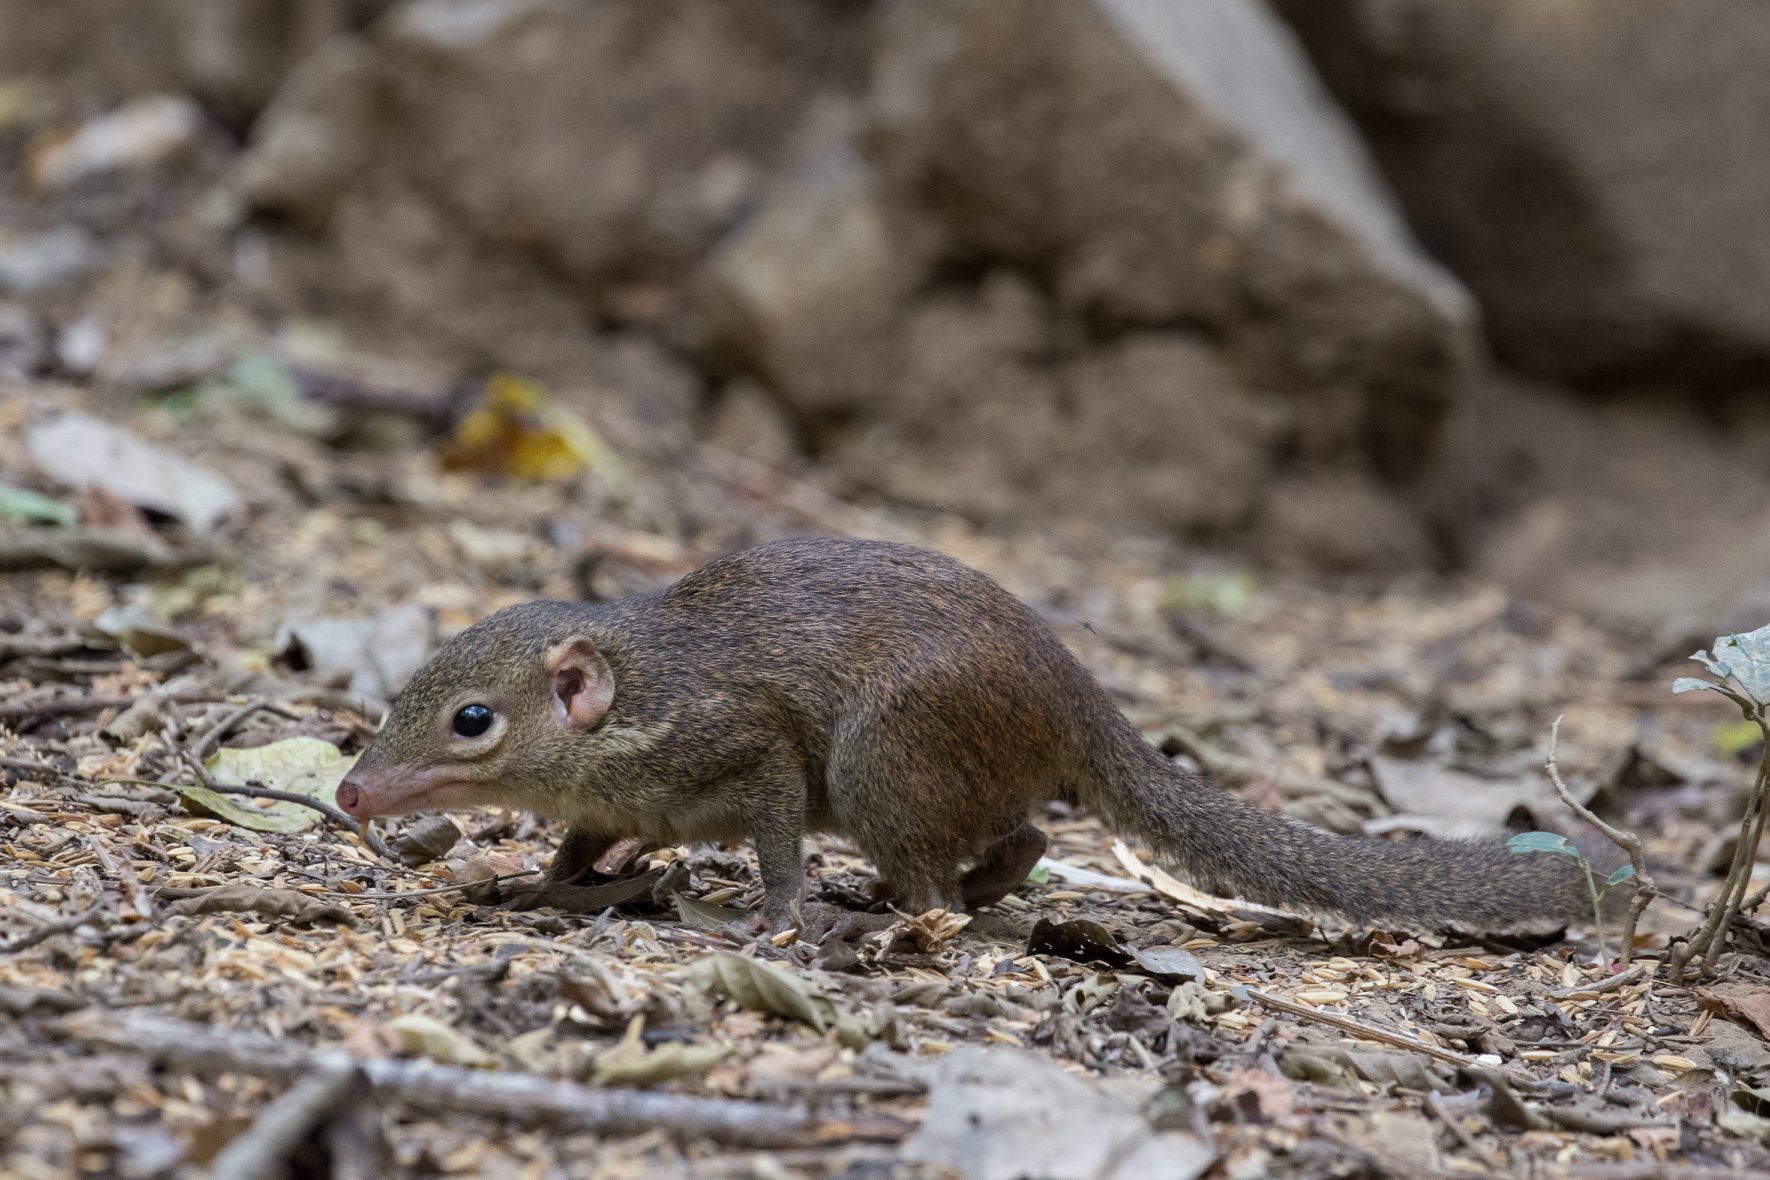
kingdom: Animalia
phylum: Chordata
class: Mammalia
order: Scandentia
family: Tupaiidae
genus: Tupaia
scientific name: Tupaia belangeri
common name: Northern treeshrew
